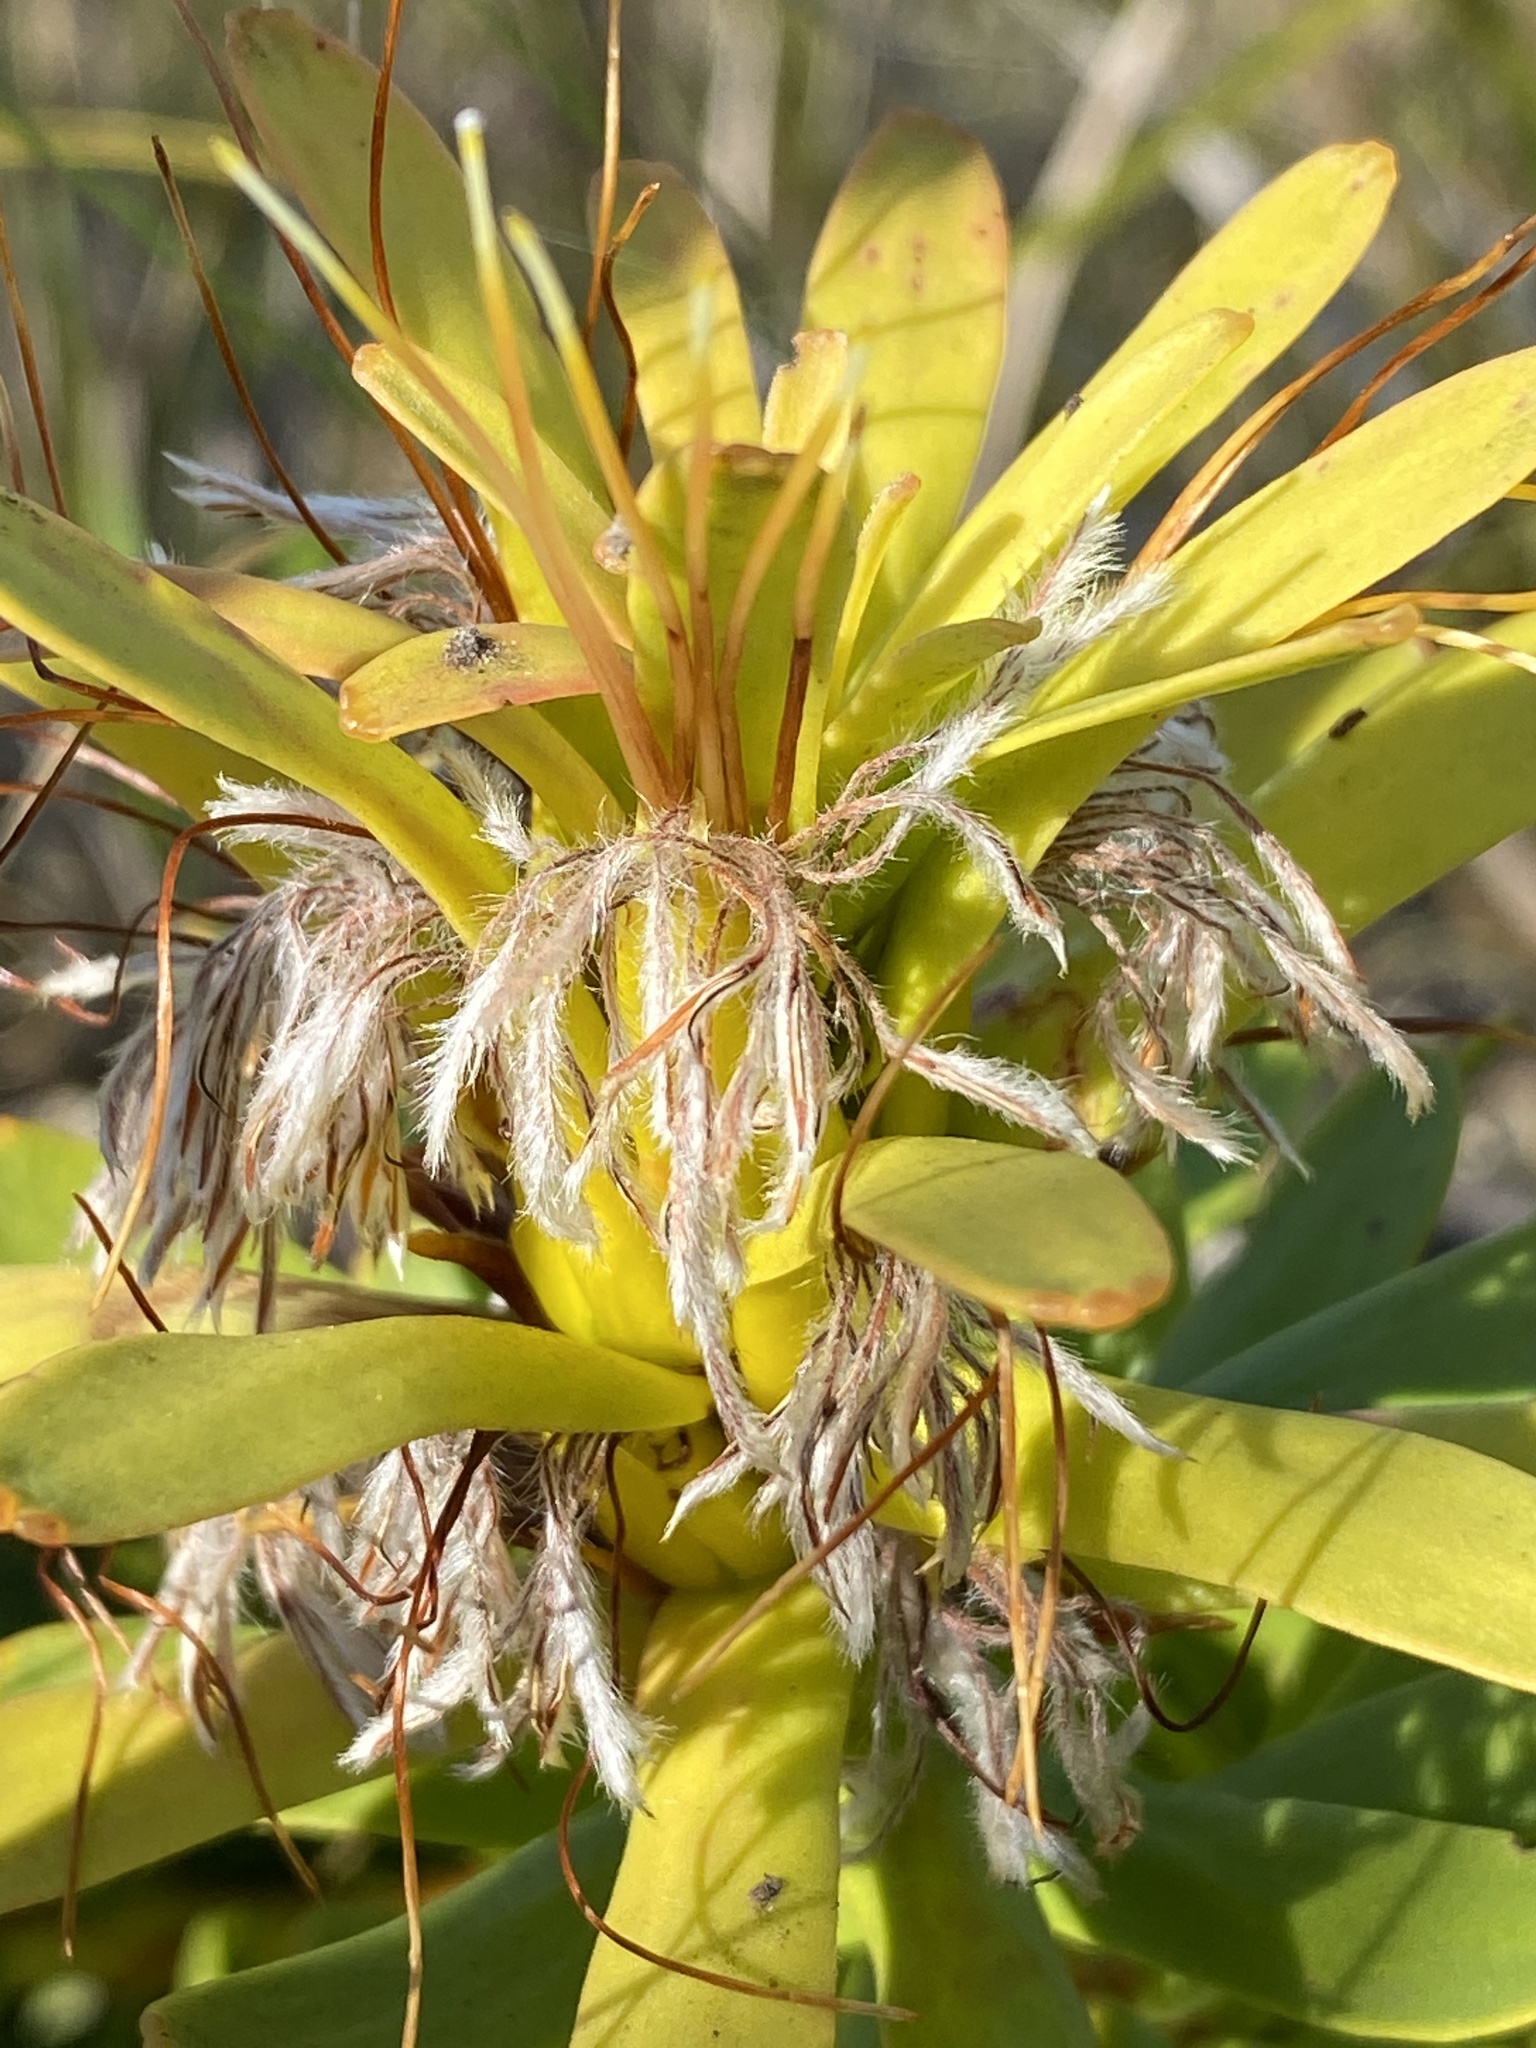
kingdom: Plantae
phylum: Tracheophyta
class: Magnoliopsida
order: Proteales
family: Proteaceae
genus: Mimetes
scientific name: Mimetes cucullatus
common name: Common pagoda
